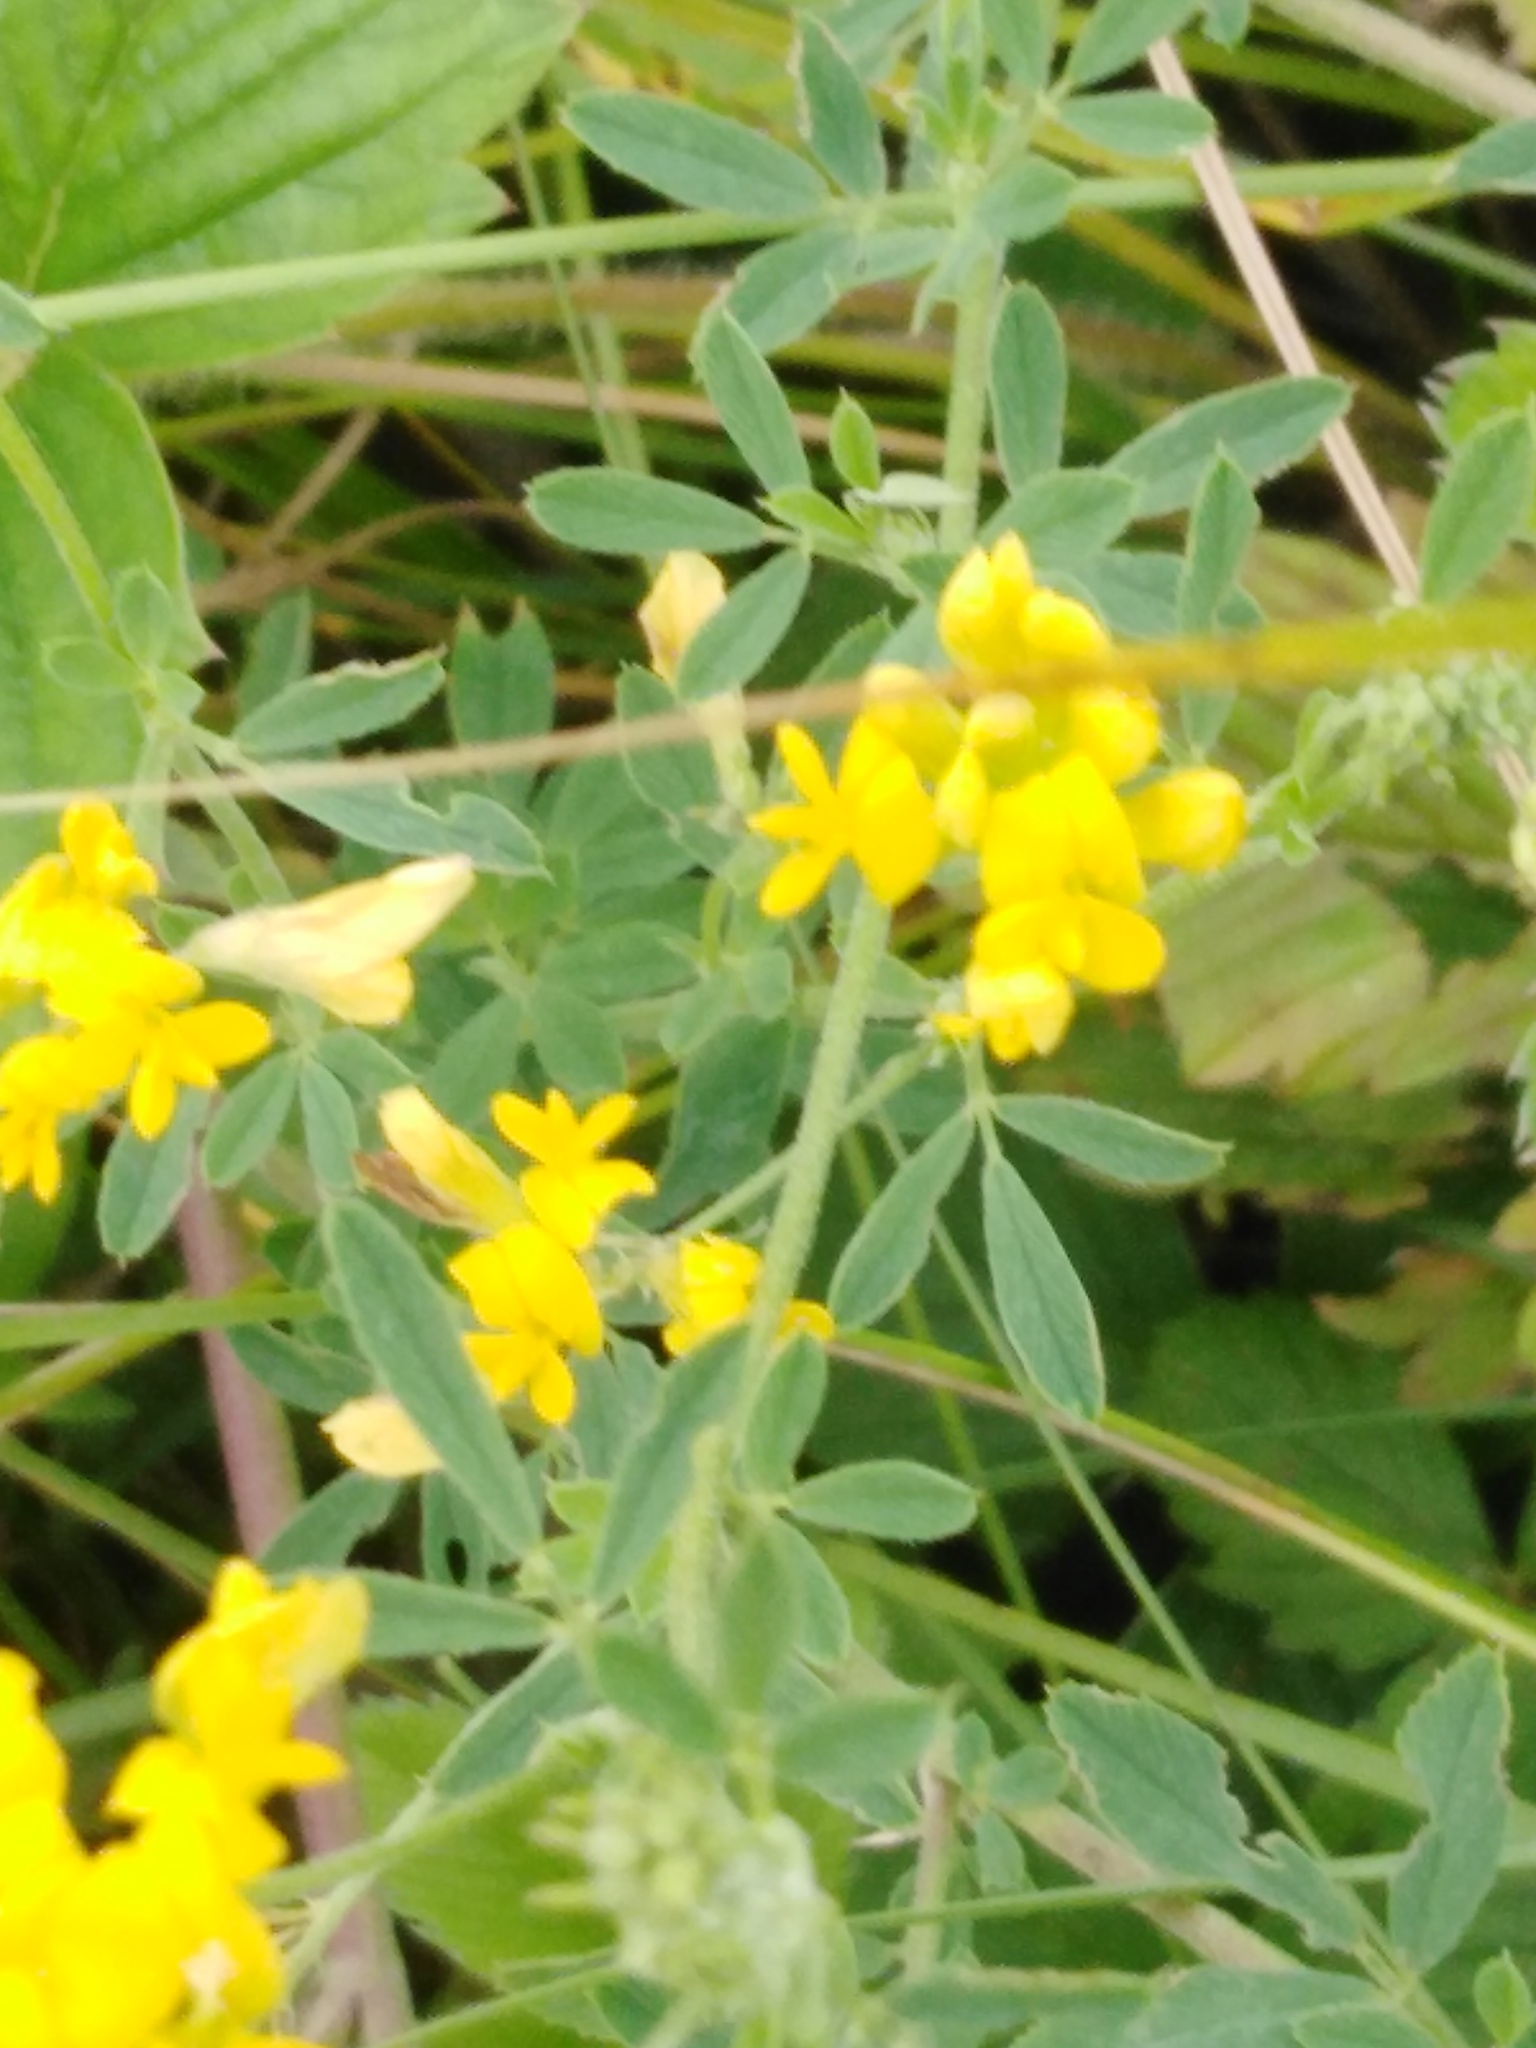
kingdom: Plantae
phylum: Tracheophyta
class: Magnoliopsida
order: Fabales
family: Fabaceae
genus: Medicago
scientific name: Medicago falcata
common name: Sickle medick
